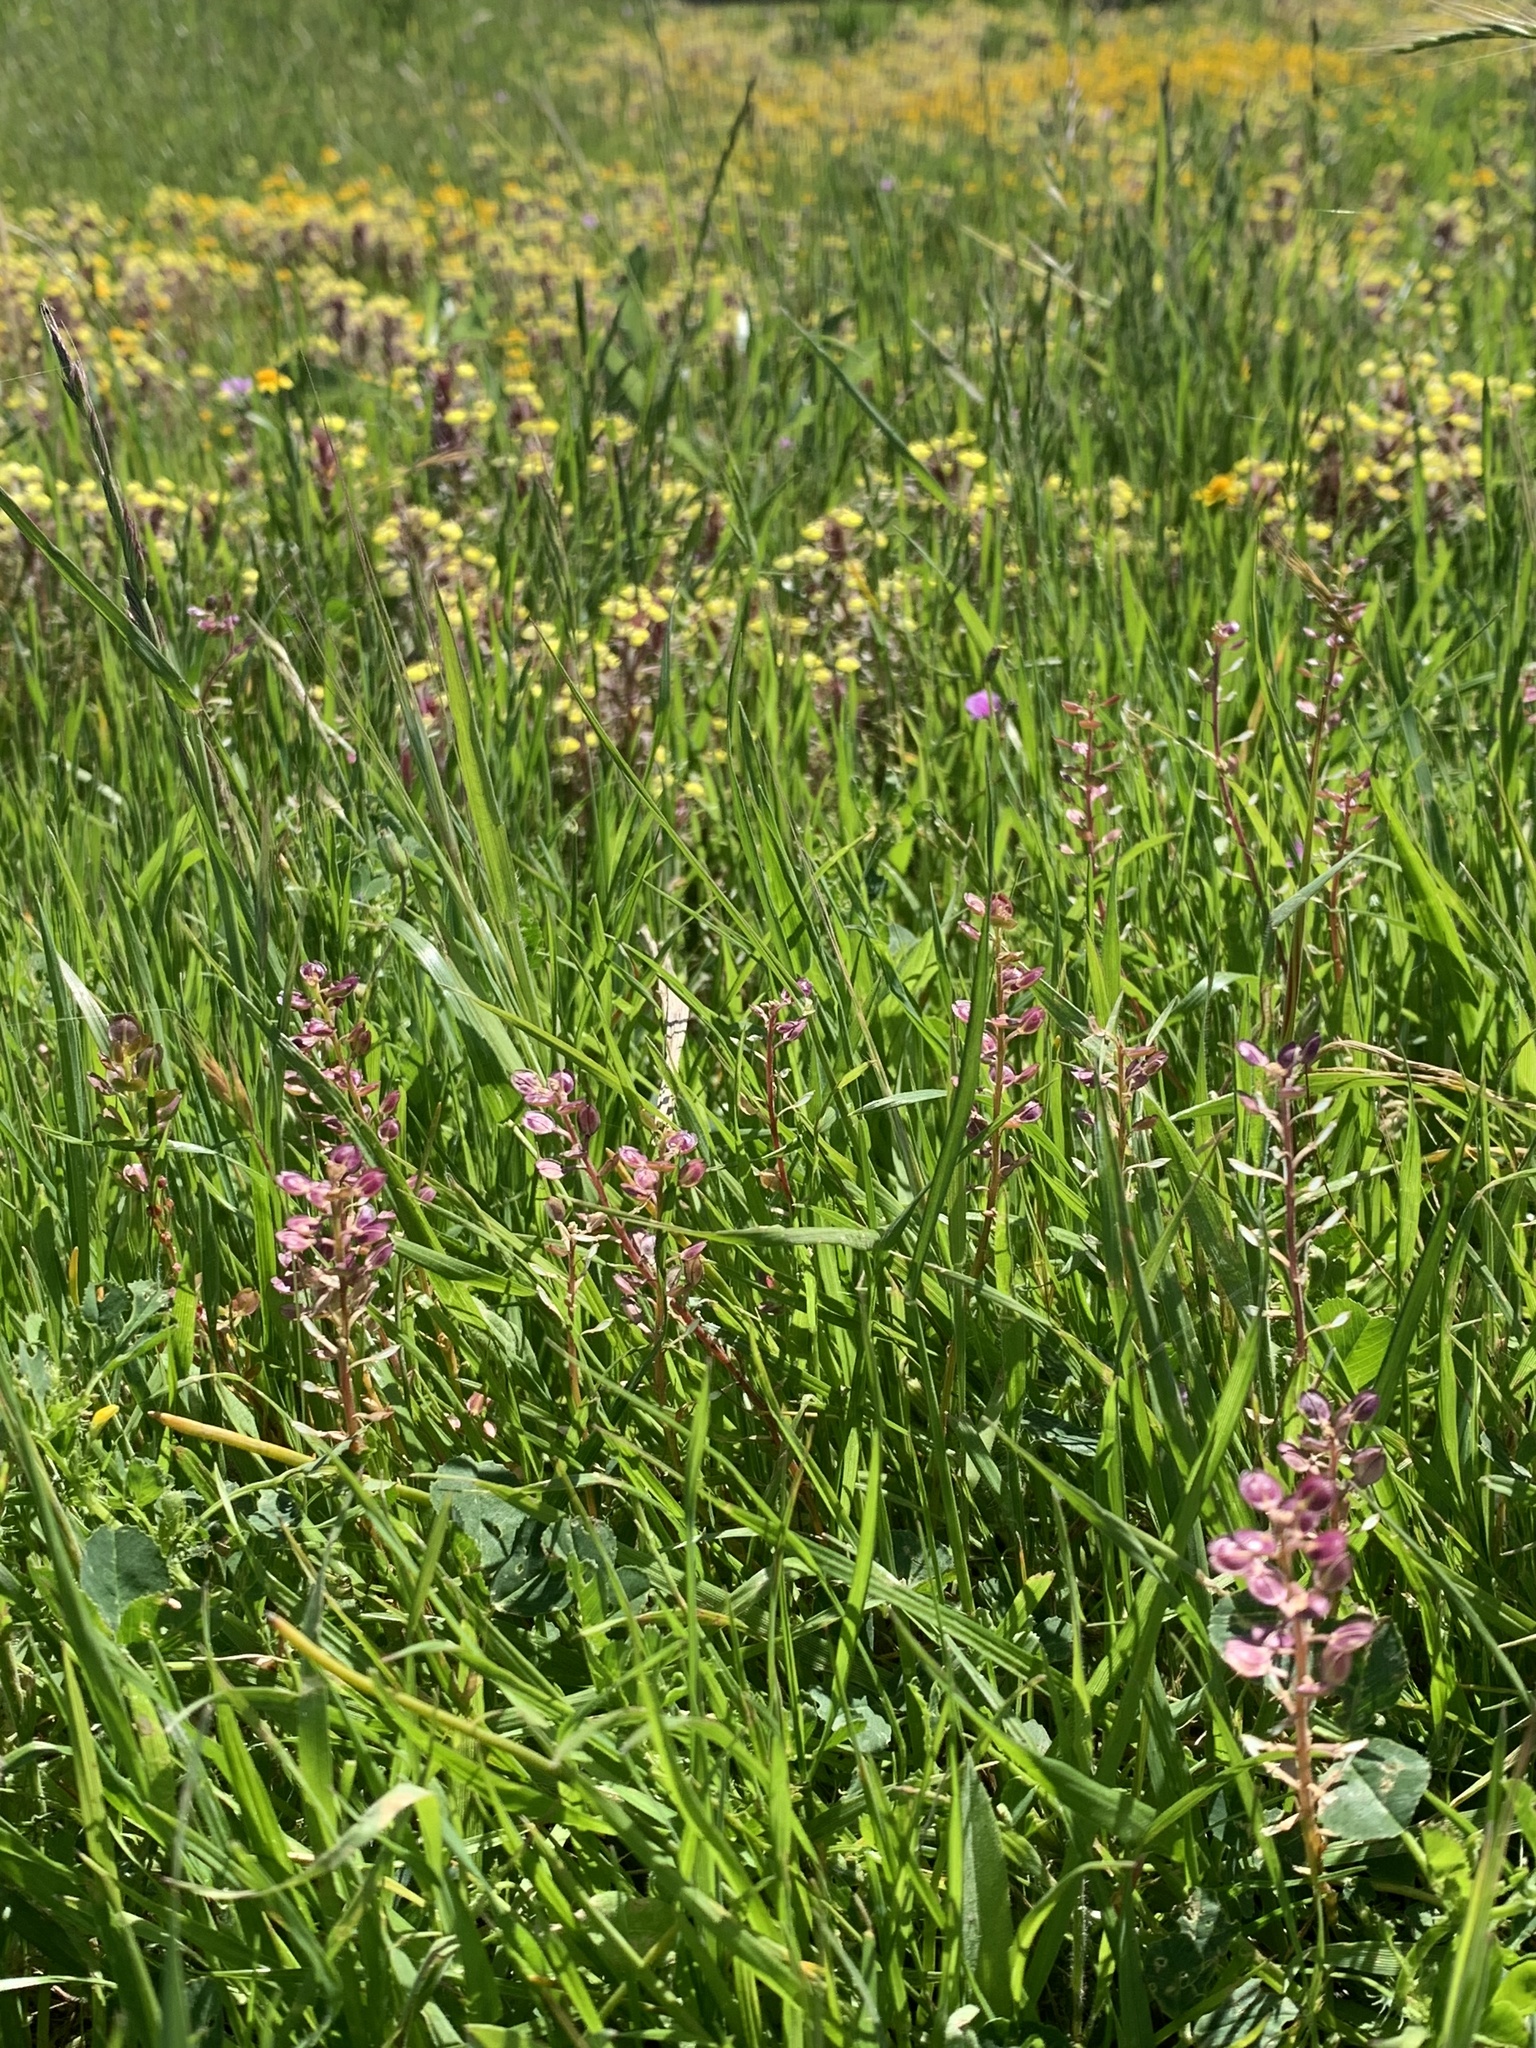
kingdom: Plantae
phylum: Tracheophyta
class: Magnoliopsida
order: Brassicales
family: Brassicaceae
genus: Lepidium
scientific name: Lepidium nitidum
